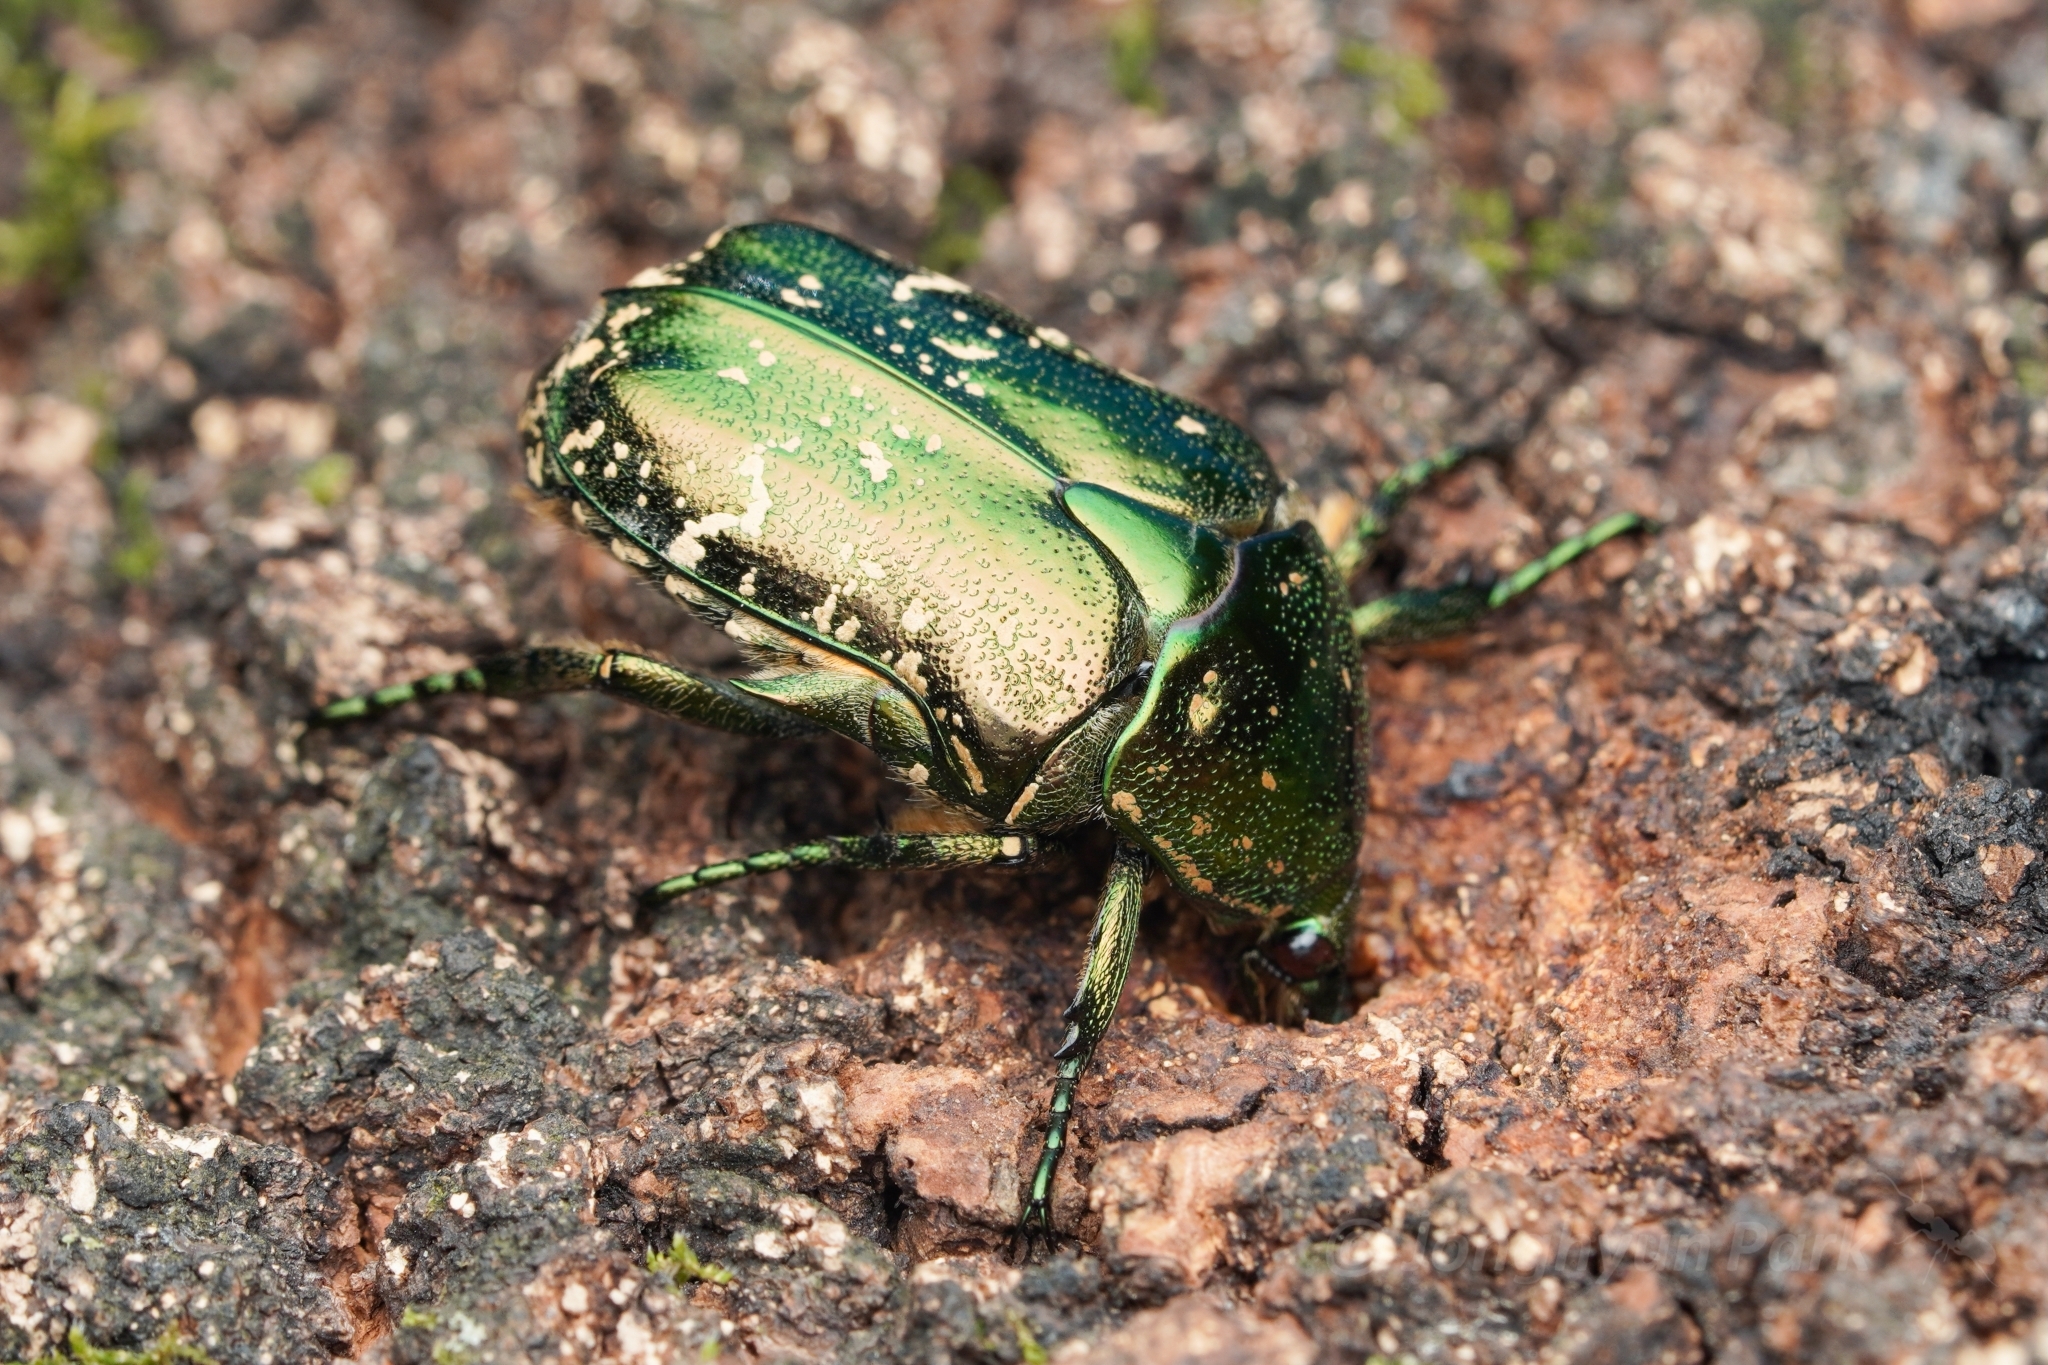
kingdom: Animalia
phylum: Arthropoda
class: Insecta
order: Coleoptera
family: Scarabaeidae
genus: Protaetia
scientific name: Protaetia orientalis
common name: Oriental flower beetle
